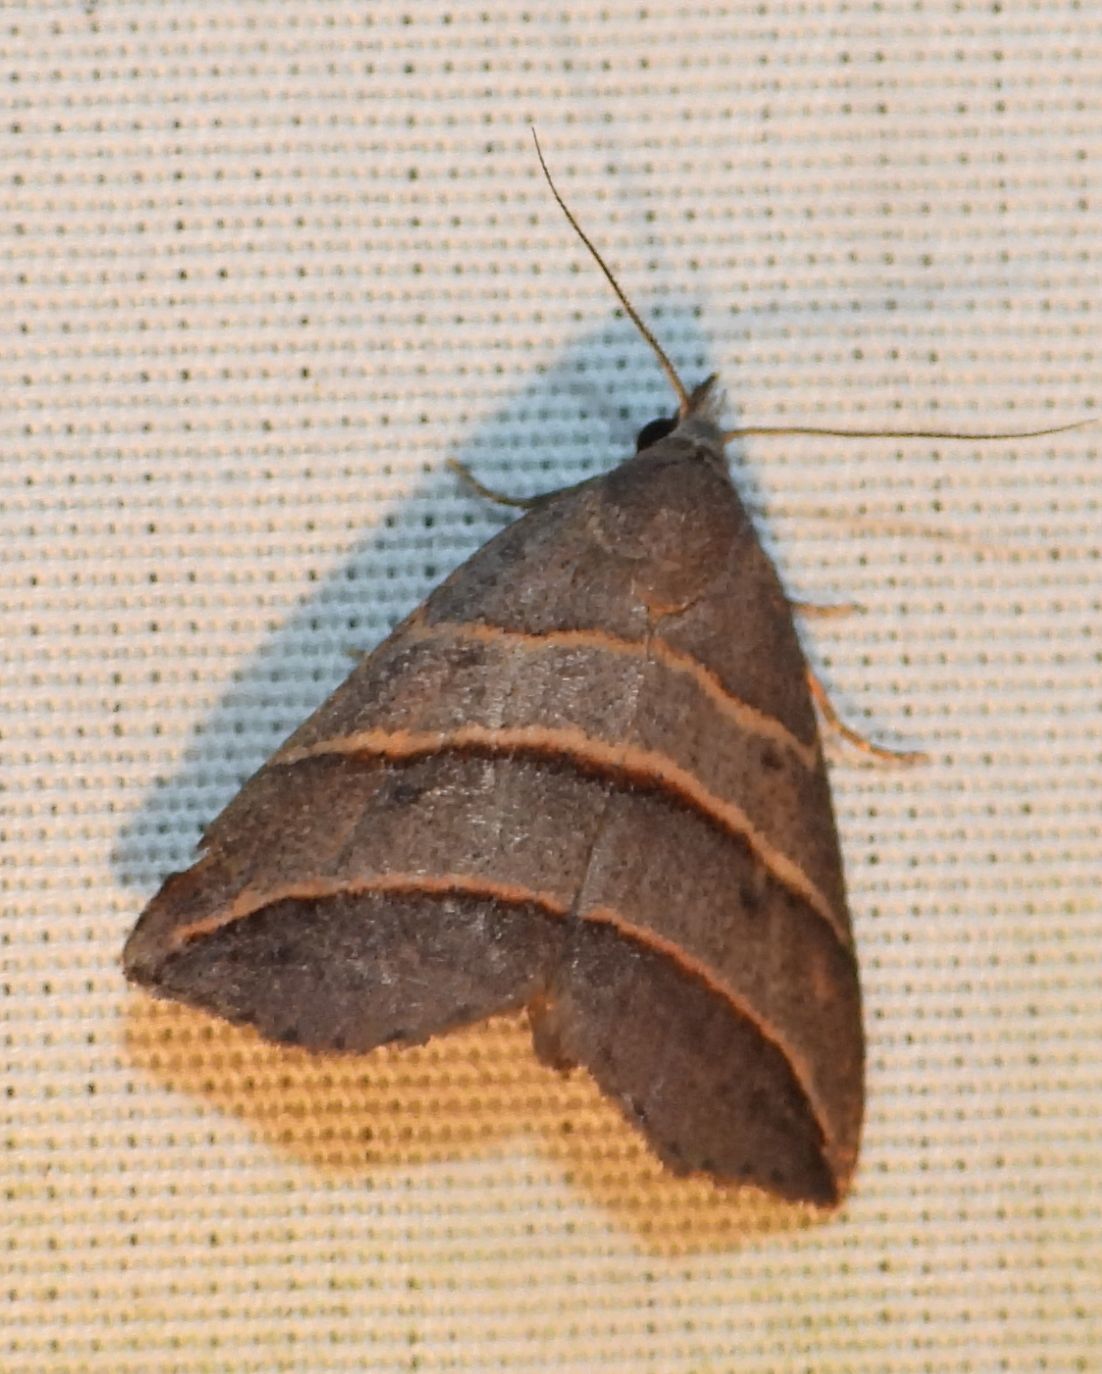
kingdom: Animalia
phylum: Arthropoda
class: Insecta
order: Lepidoptera
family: Erebidae
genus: Colobochyla
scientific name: Colobochyla interpuncta
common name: Yellow-lined owlet
